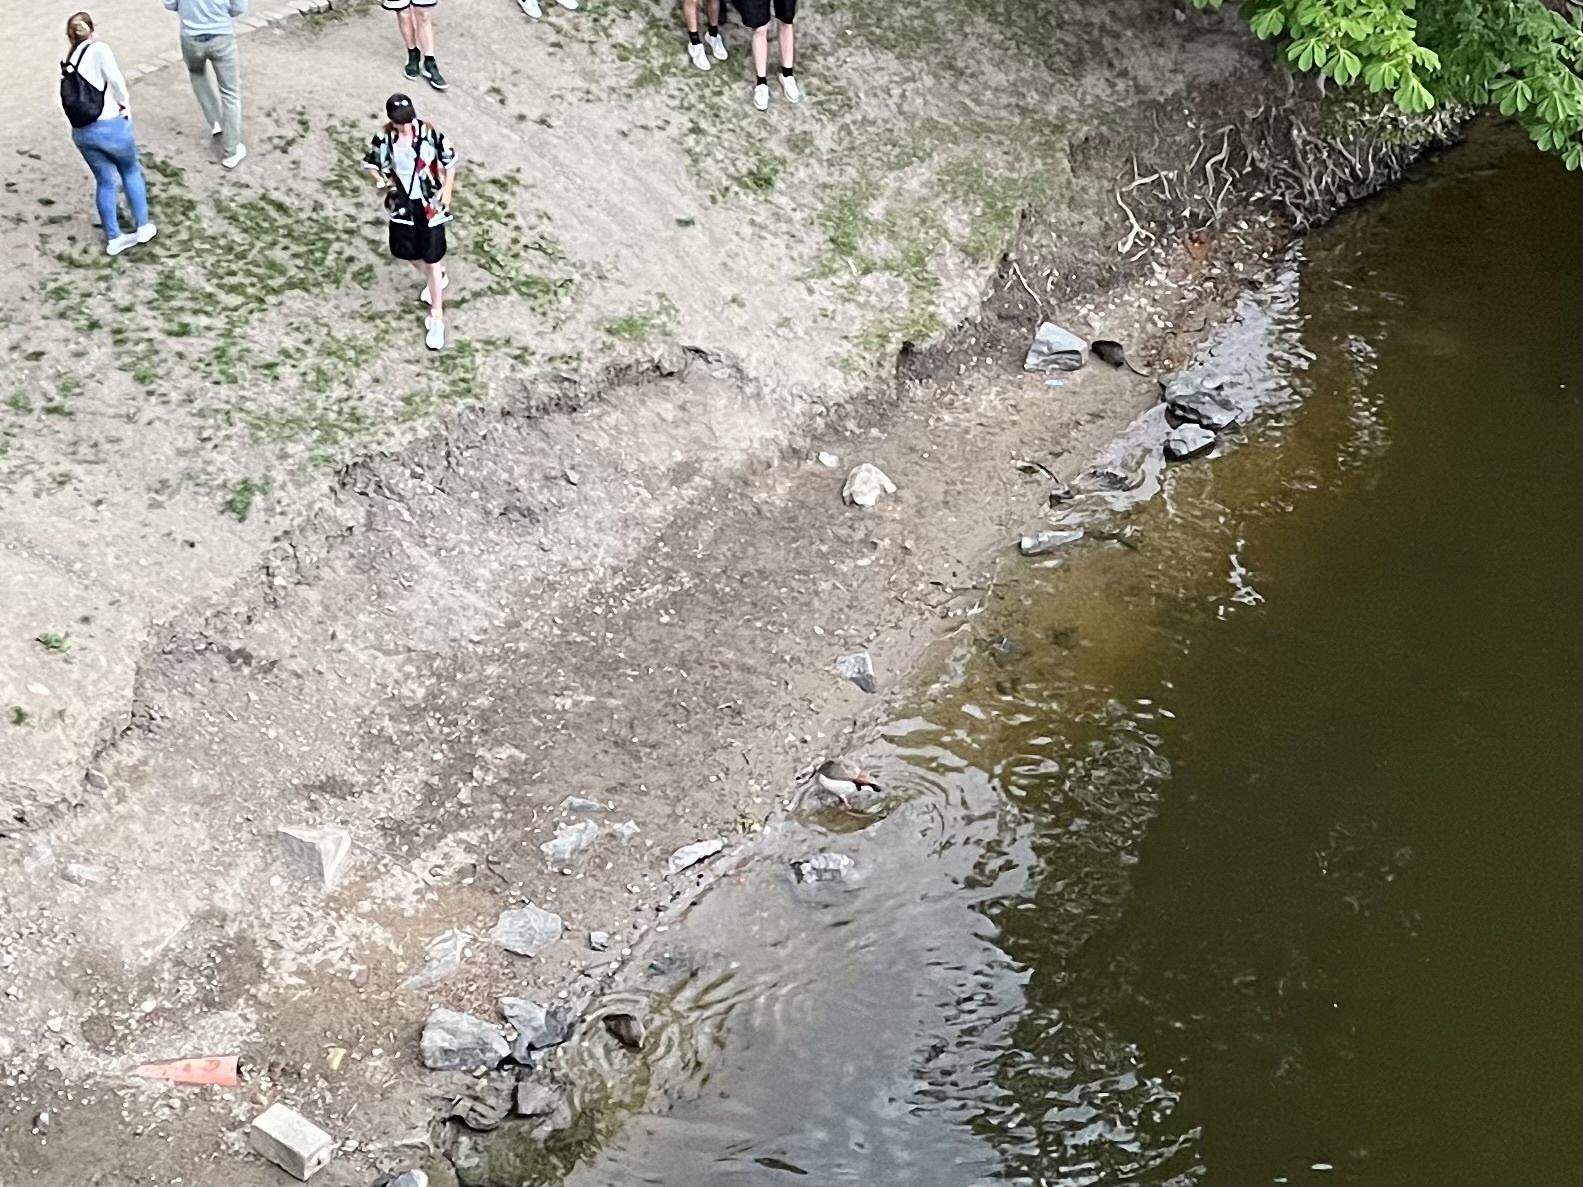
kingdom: Animalia
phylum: Chordata
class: Aves
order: Anseriformes
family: Anatidae
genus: Alopochen
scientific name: Alopochen aegyptiaca
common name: Egyptian goose
